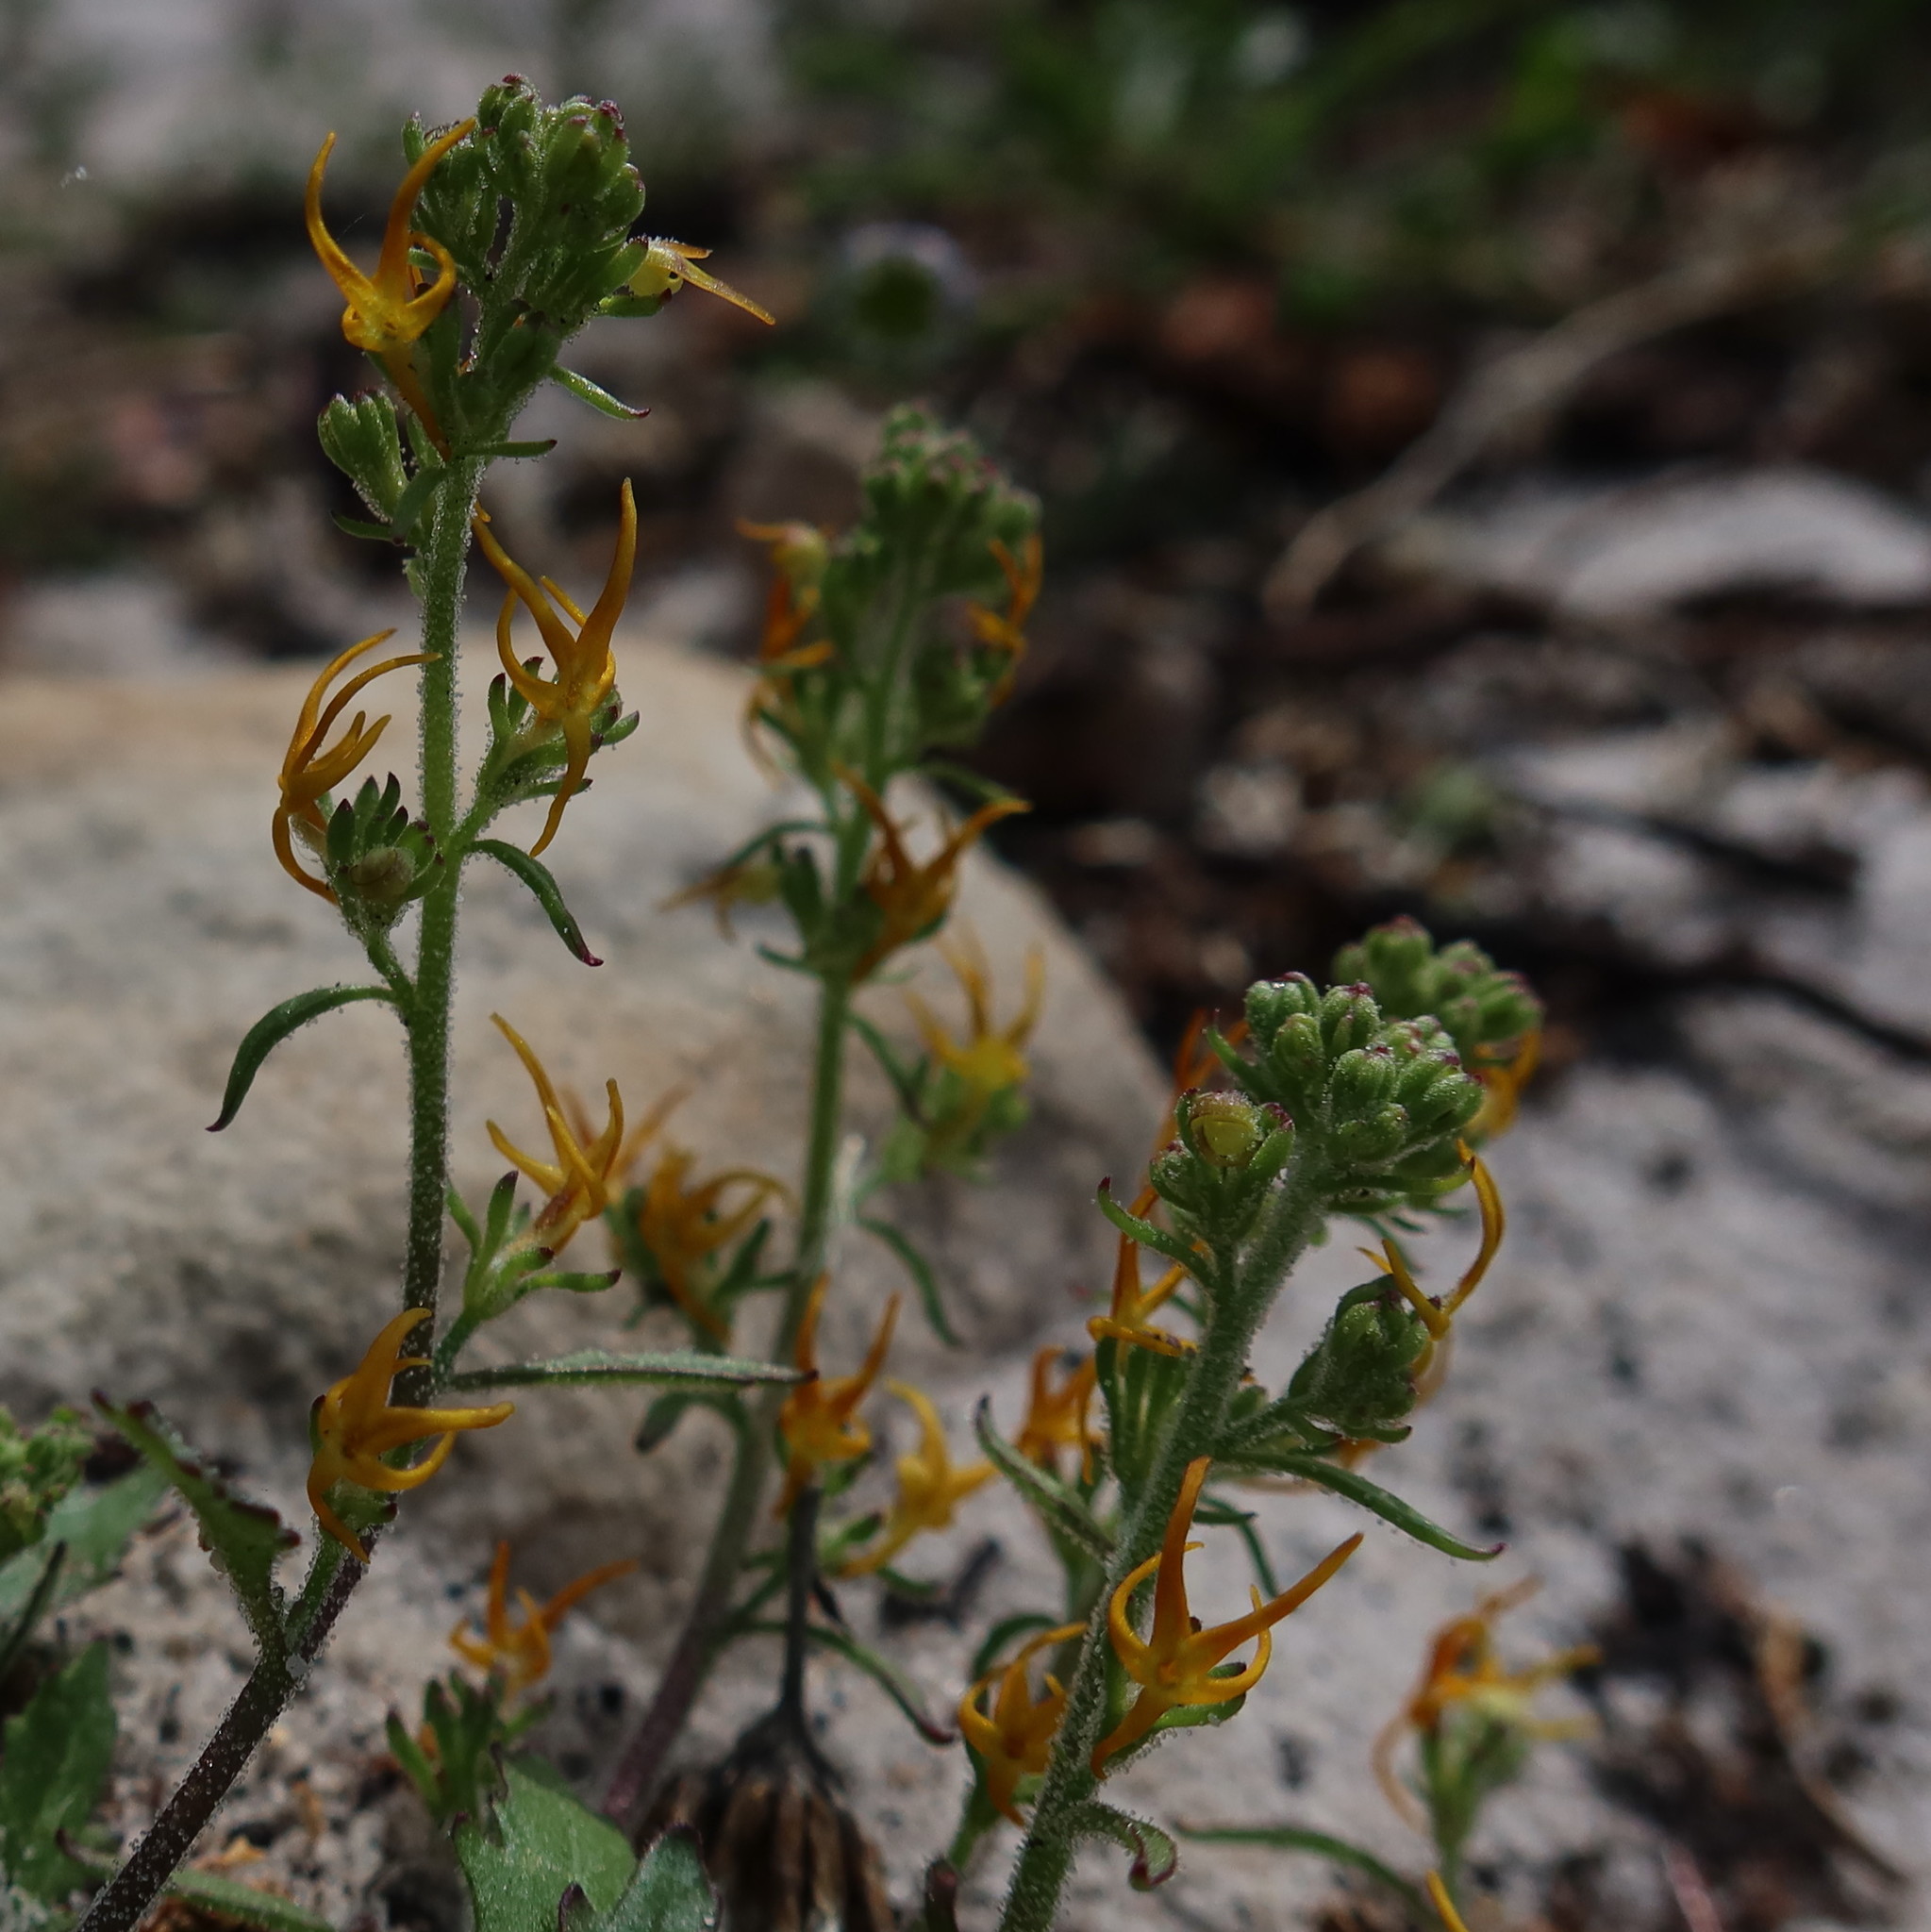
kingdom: Plantae
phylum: Tracheophyta
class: Magnoliopsida
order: Lamiales
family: Scrophulariaceae
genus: Manulea
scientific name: Manulea cheiranthus
